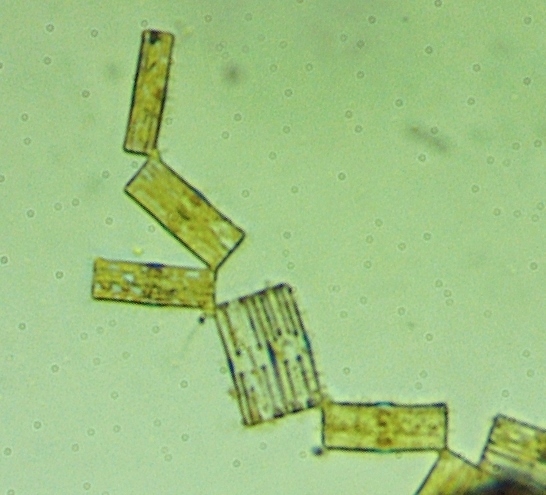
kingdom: Chromista
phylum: Ochrophyta
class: Bacillariophyceae
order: Tabellariales
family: Tabellariaceae
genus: Tabellaria
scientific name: Tabellaria fenestrata
